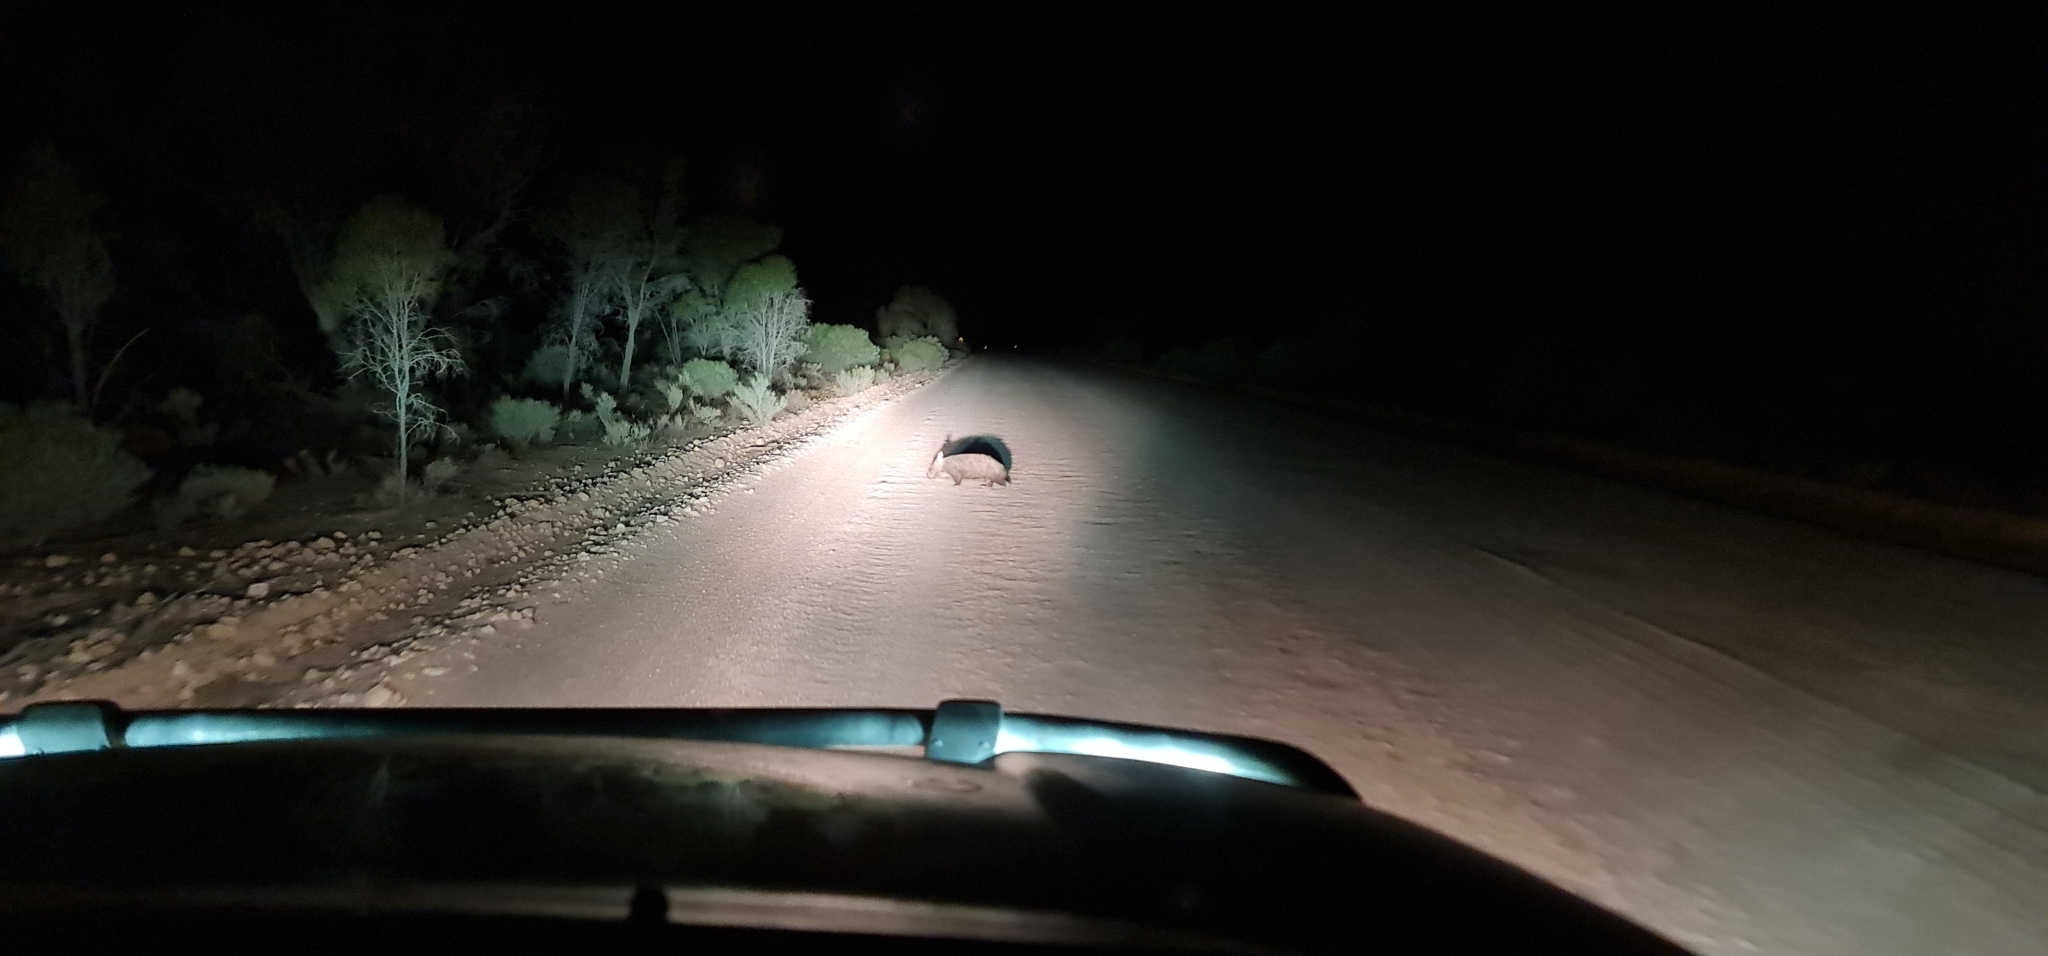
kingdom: Animalia
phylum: Chordata
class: Mammalia
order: Diprotodontia
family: Vombatidae
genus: Lasiorhinus
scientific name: Lasiorhinus latifrons
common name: Southern hairy-nosed wombat
